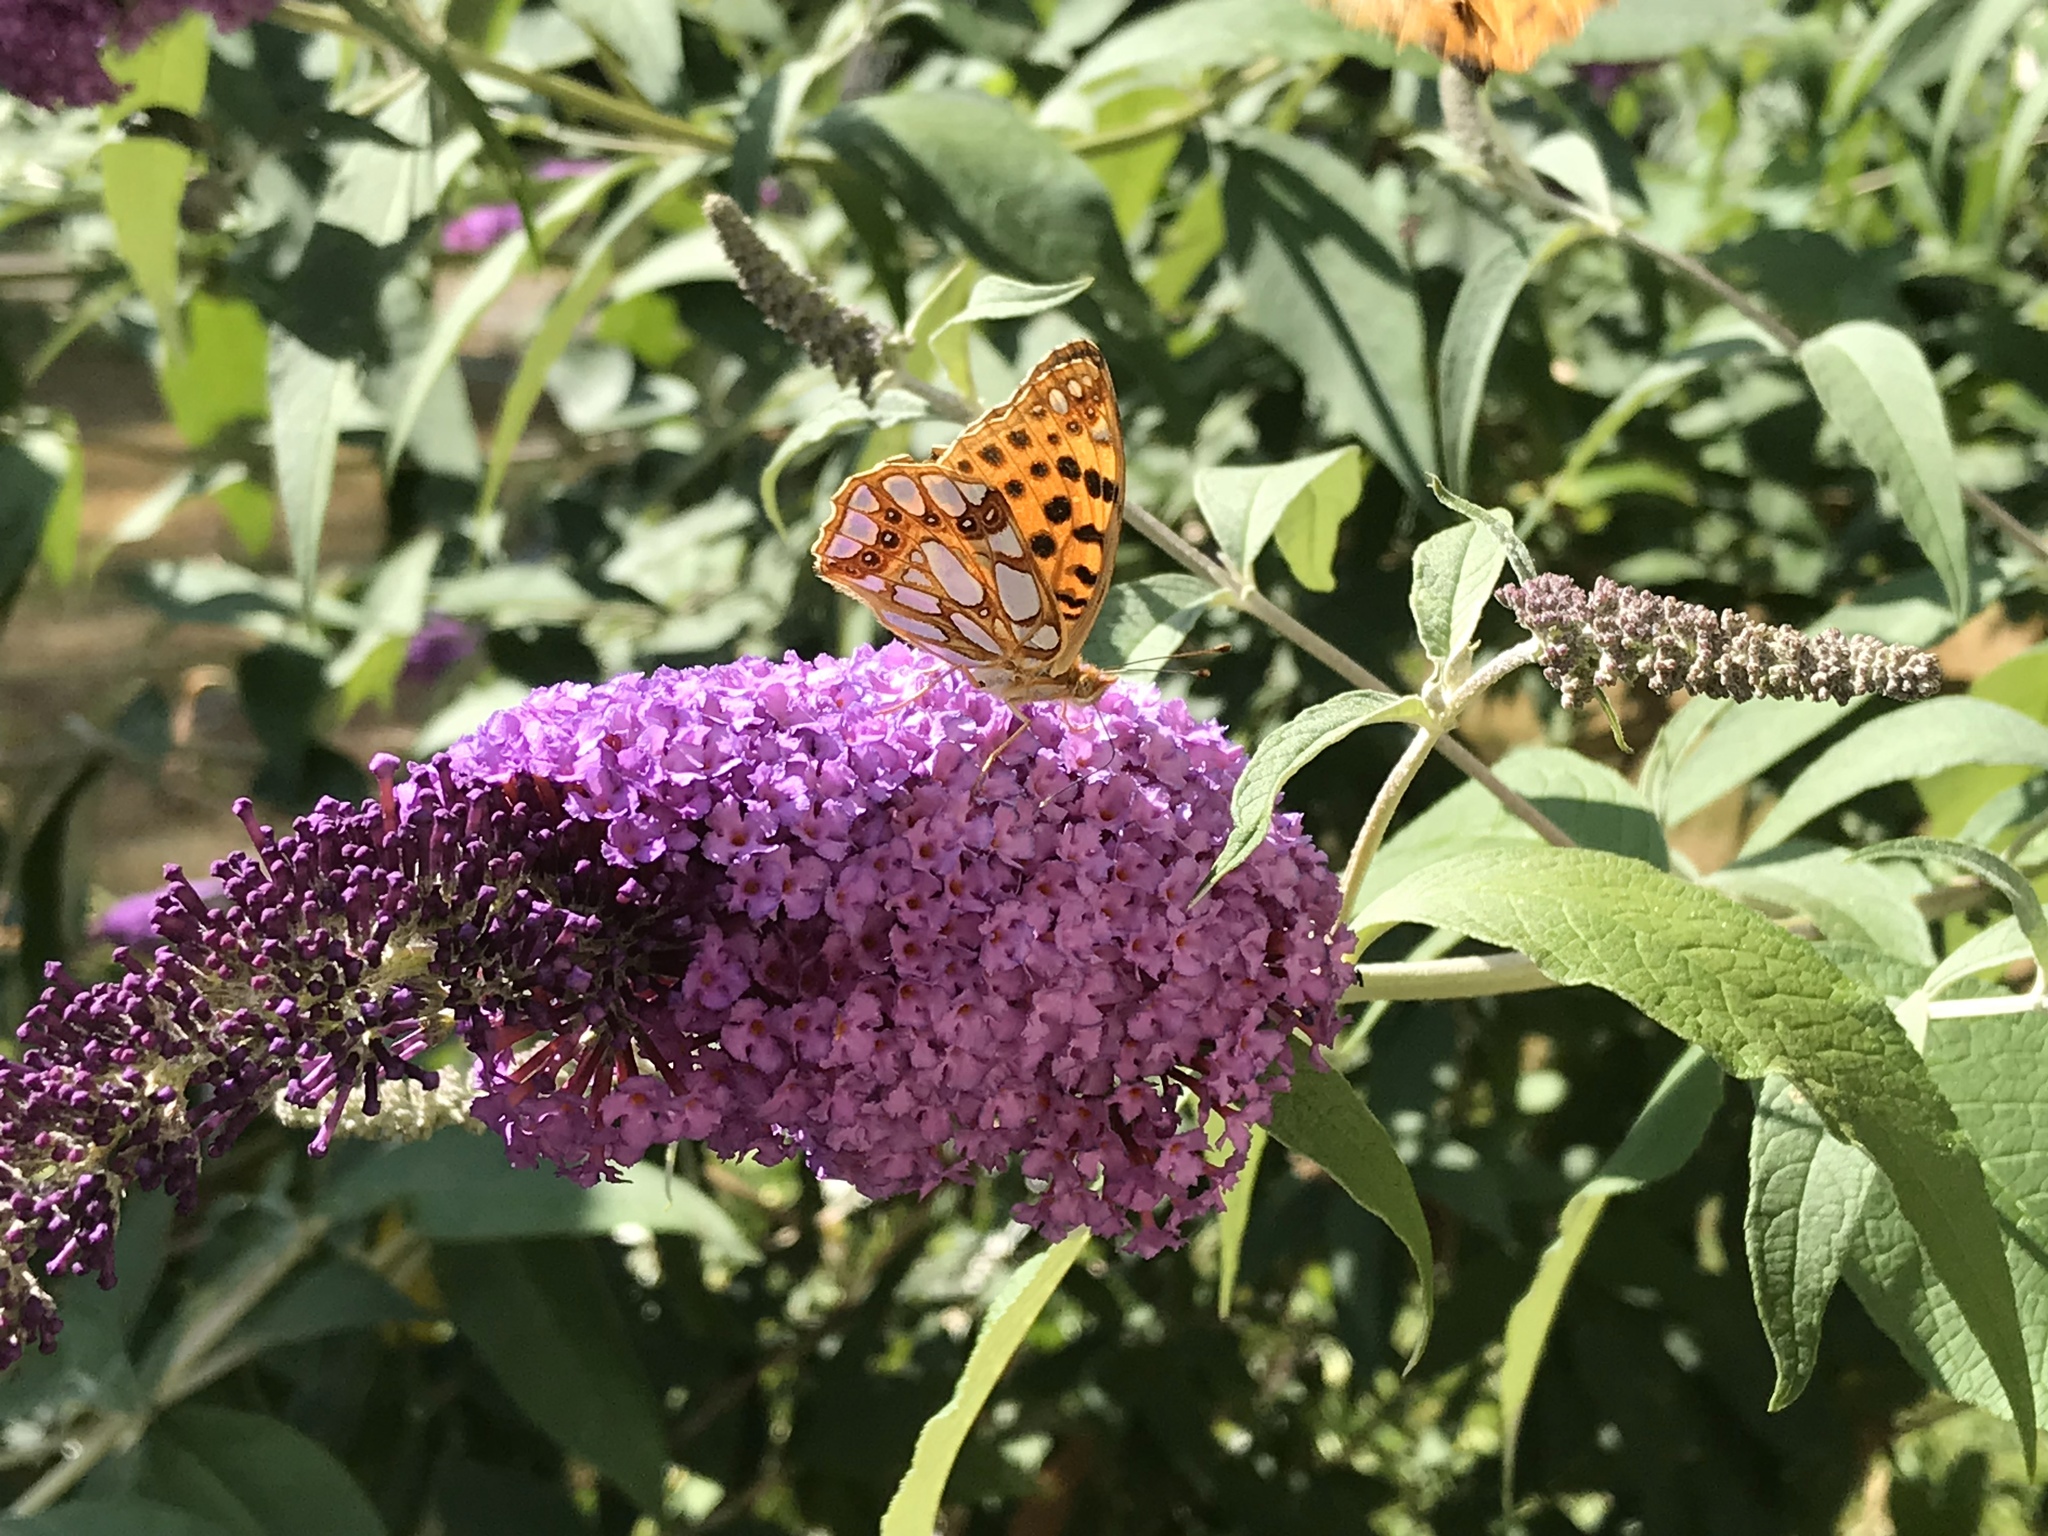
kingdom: Animalia
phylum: Arthropoda
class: Insecta
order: Lepidoptera
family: Nymphalidae
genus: Issoria
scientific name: Issoria lathonia
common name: Queen of spain fritillary
